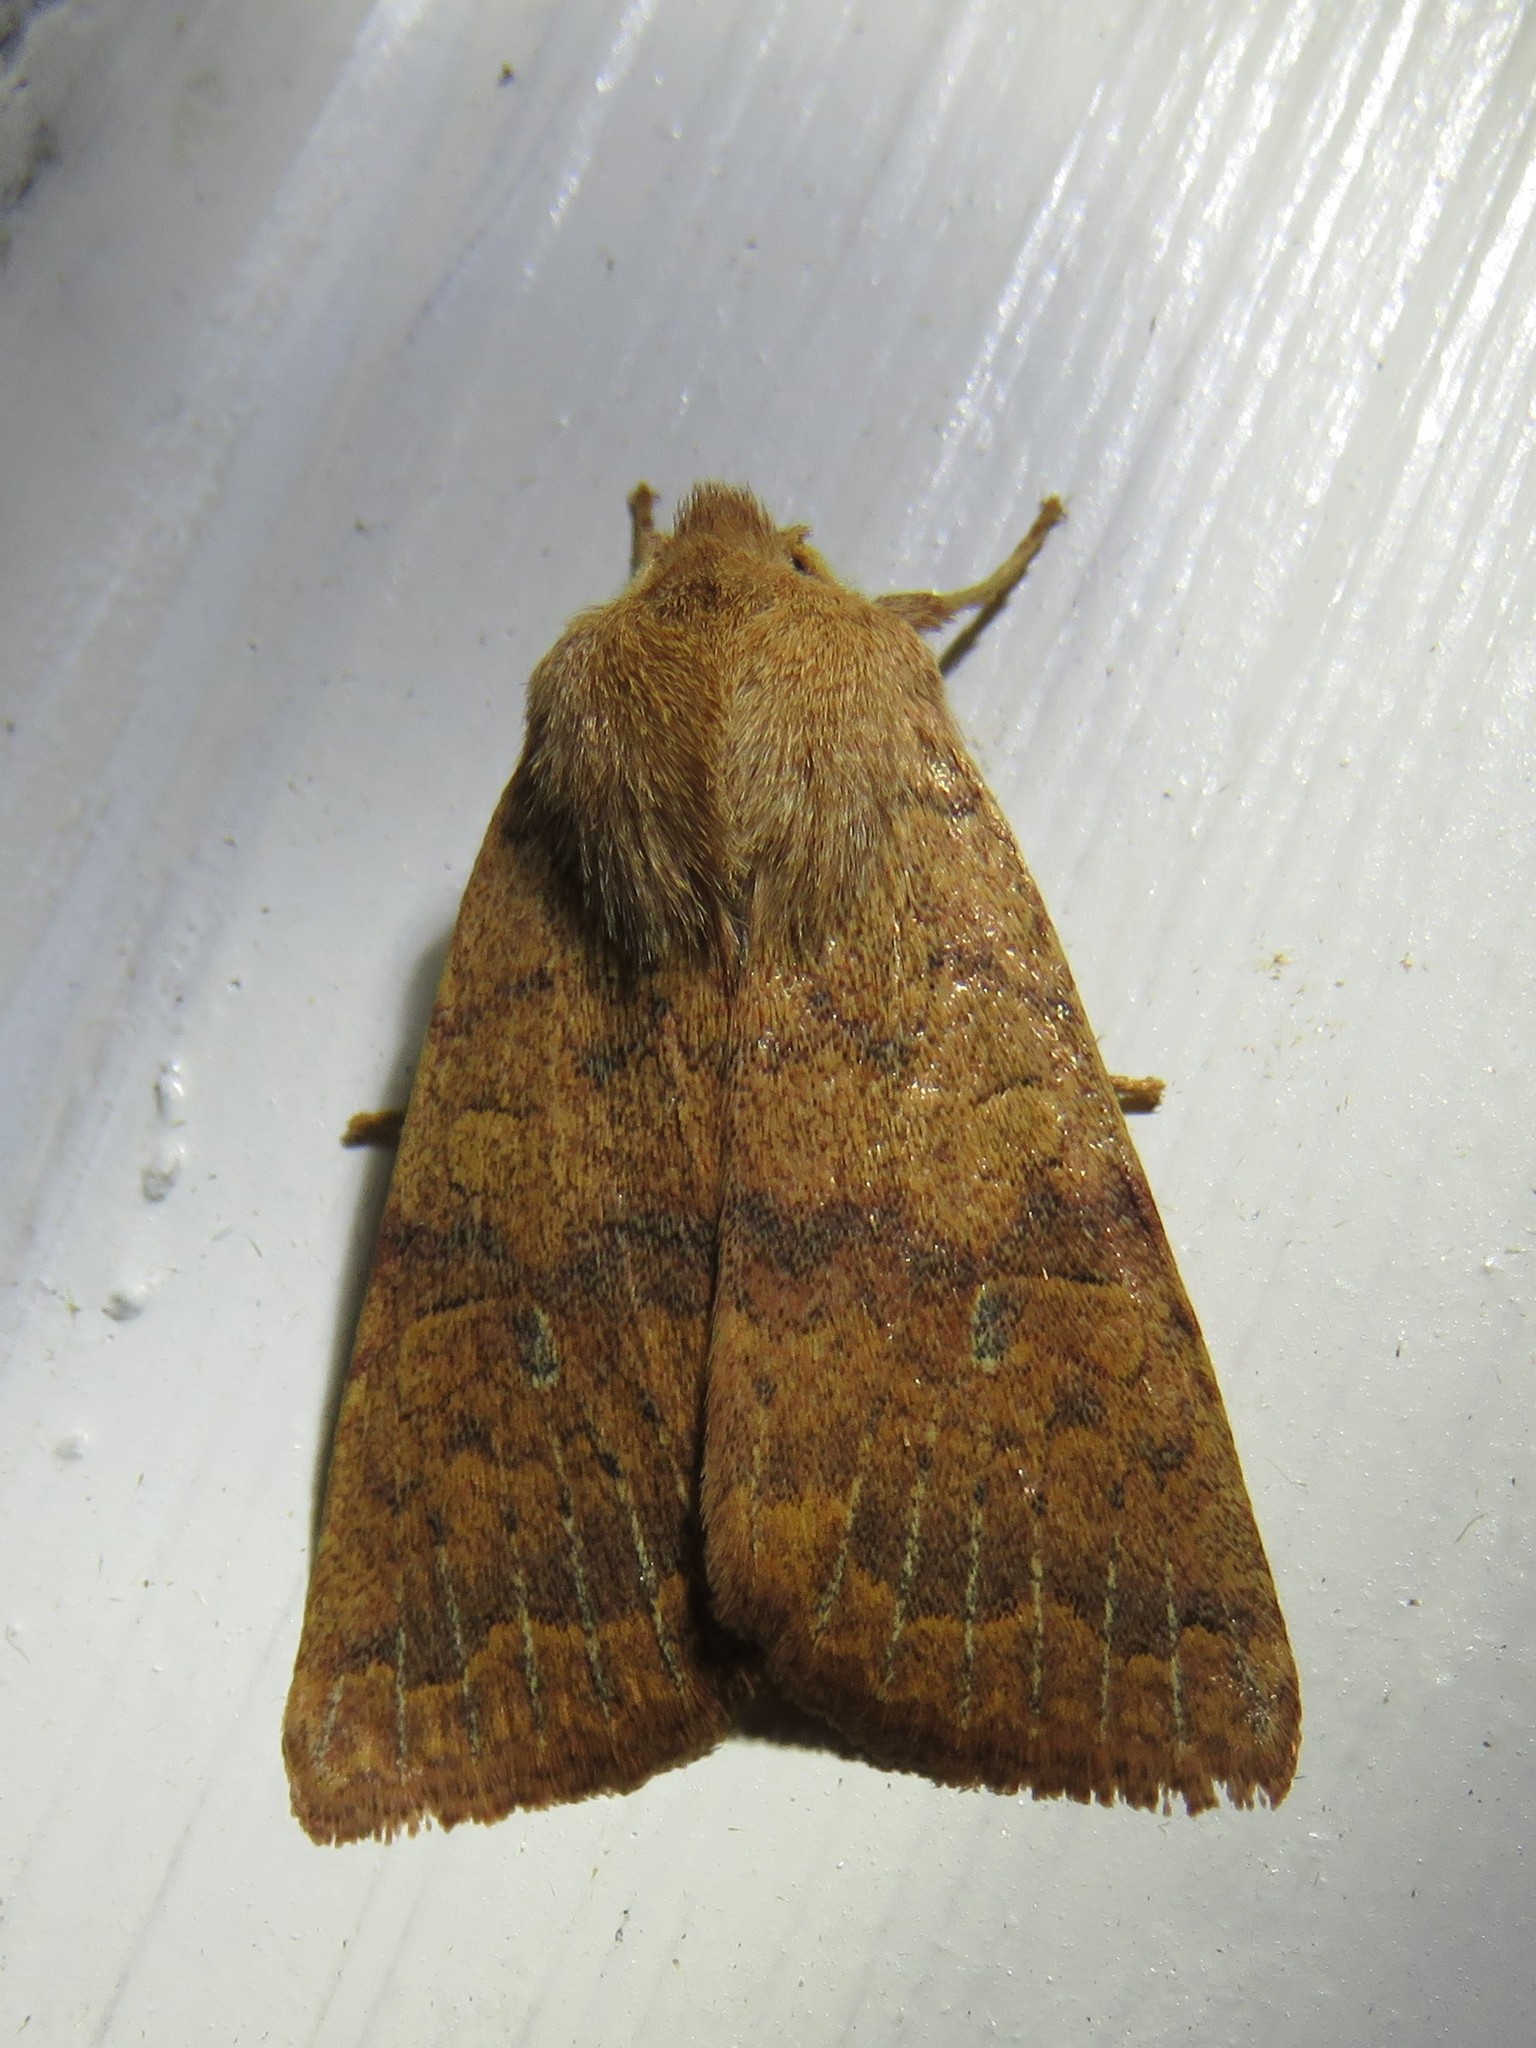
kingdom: Animalia
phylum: Arthropoda
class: Insecta
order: Lepidoptera
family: Noctuidae
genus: Agrochola
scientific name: Agrochola bicolorago
